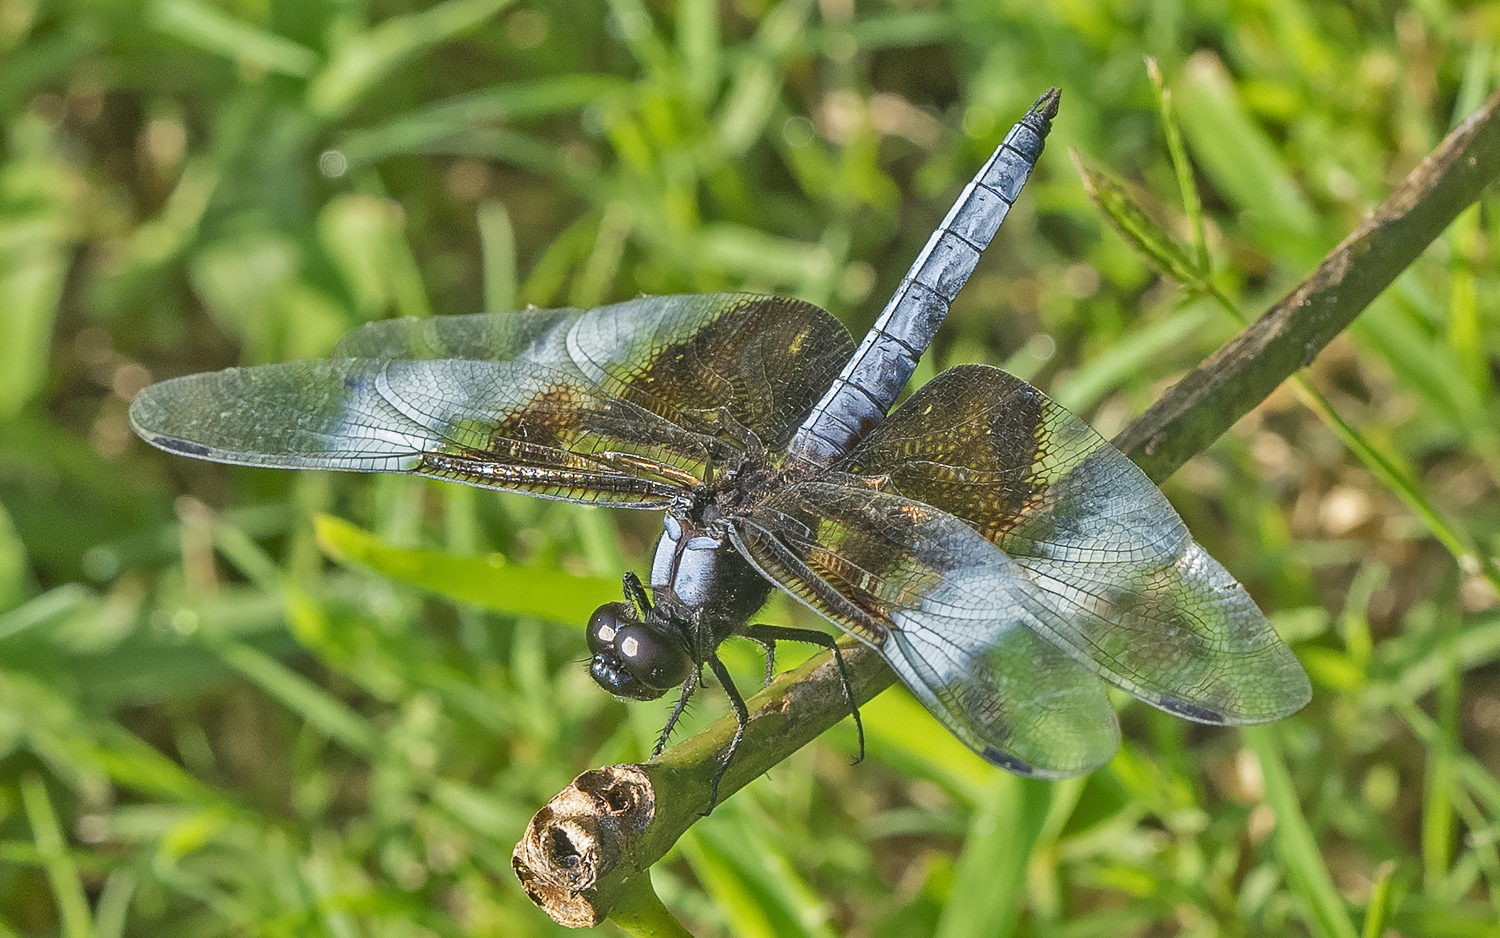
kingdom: Animalia
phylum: Arthropoda
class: Insecta
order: Odonata
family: Libellulidae
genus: Libellula
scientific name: Libellula luctuosa
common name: Widow skimmer
